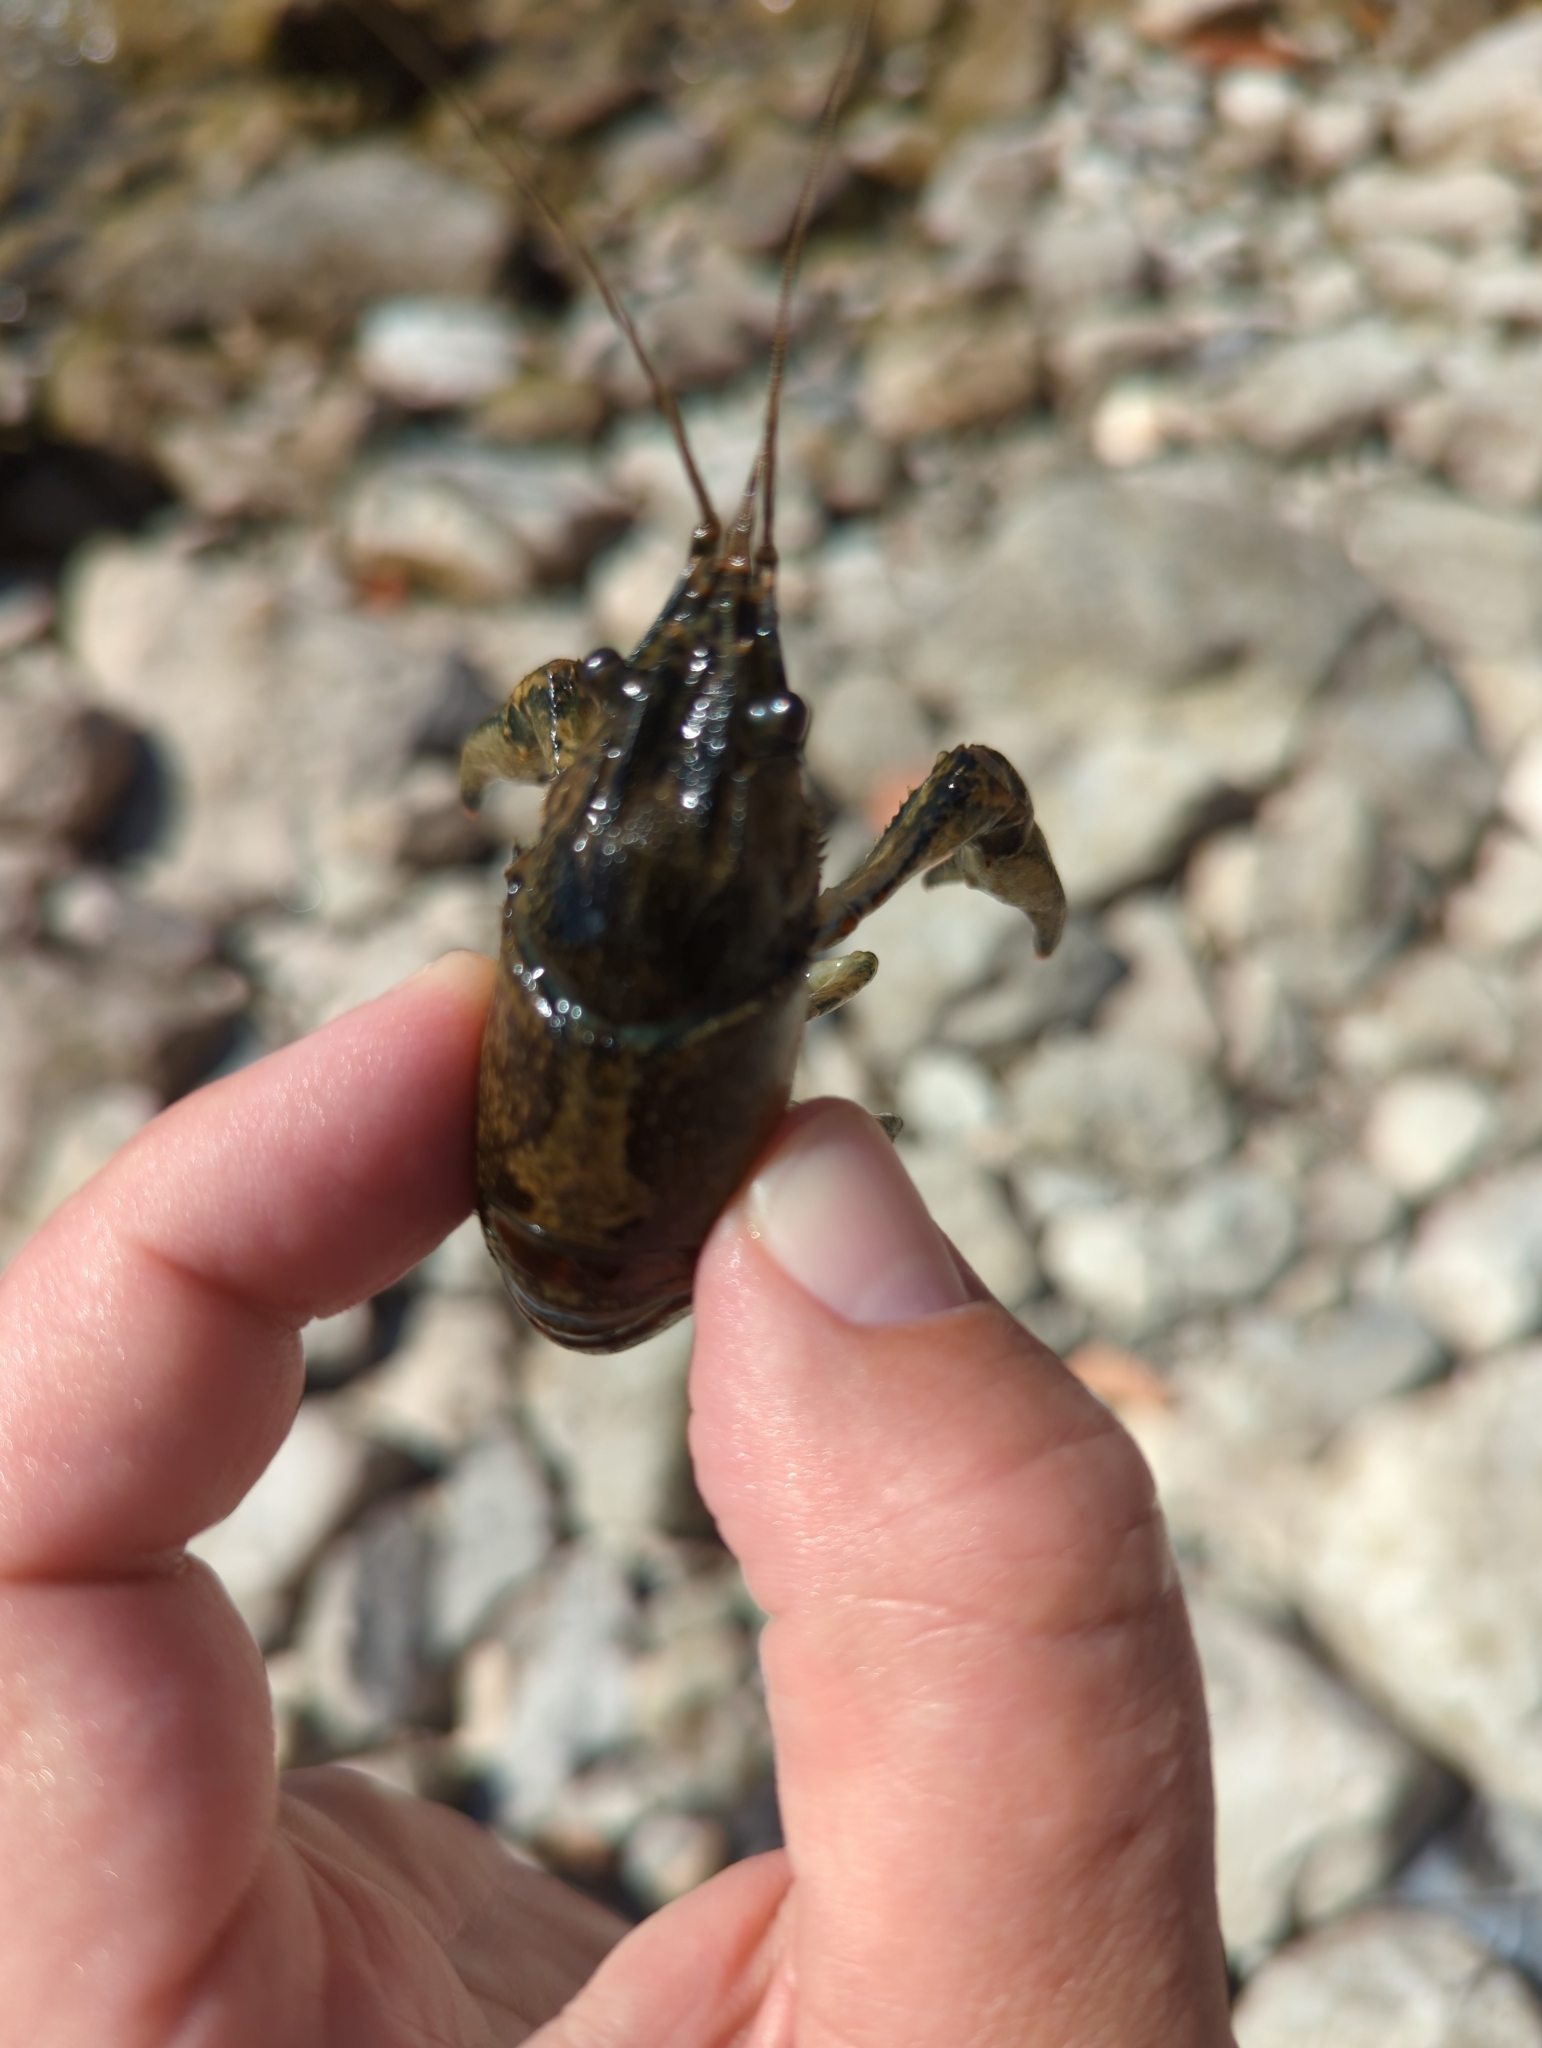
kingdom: Animalia
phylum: Arthropoda
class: Malacostraca
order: Decapoda
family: Cambaridae
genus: Faxonius
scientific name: Faxonius limosus
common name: American crayfish
